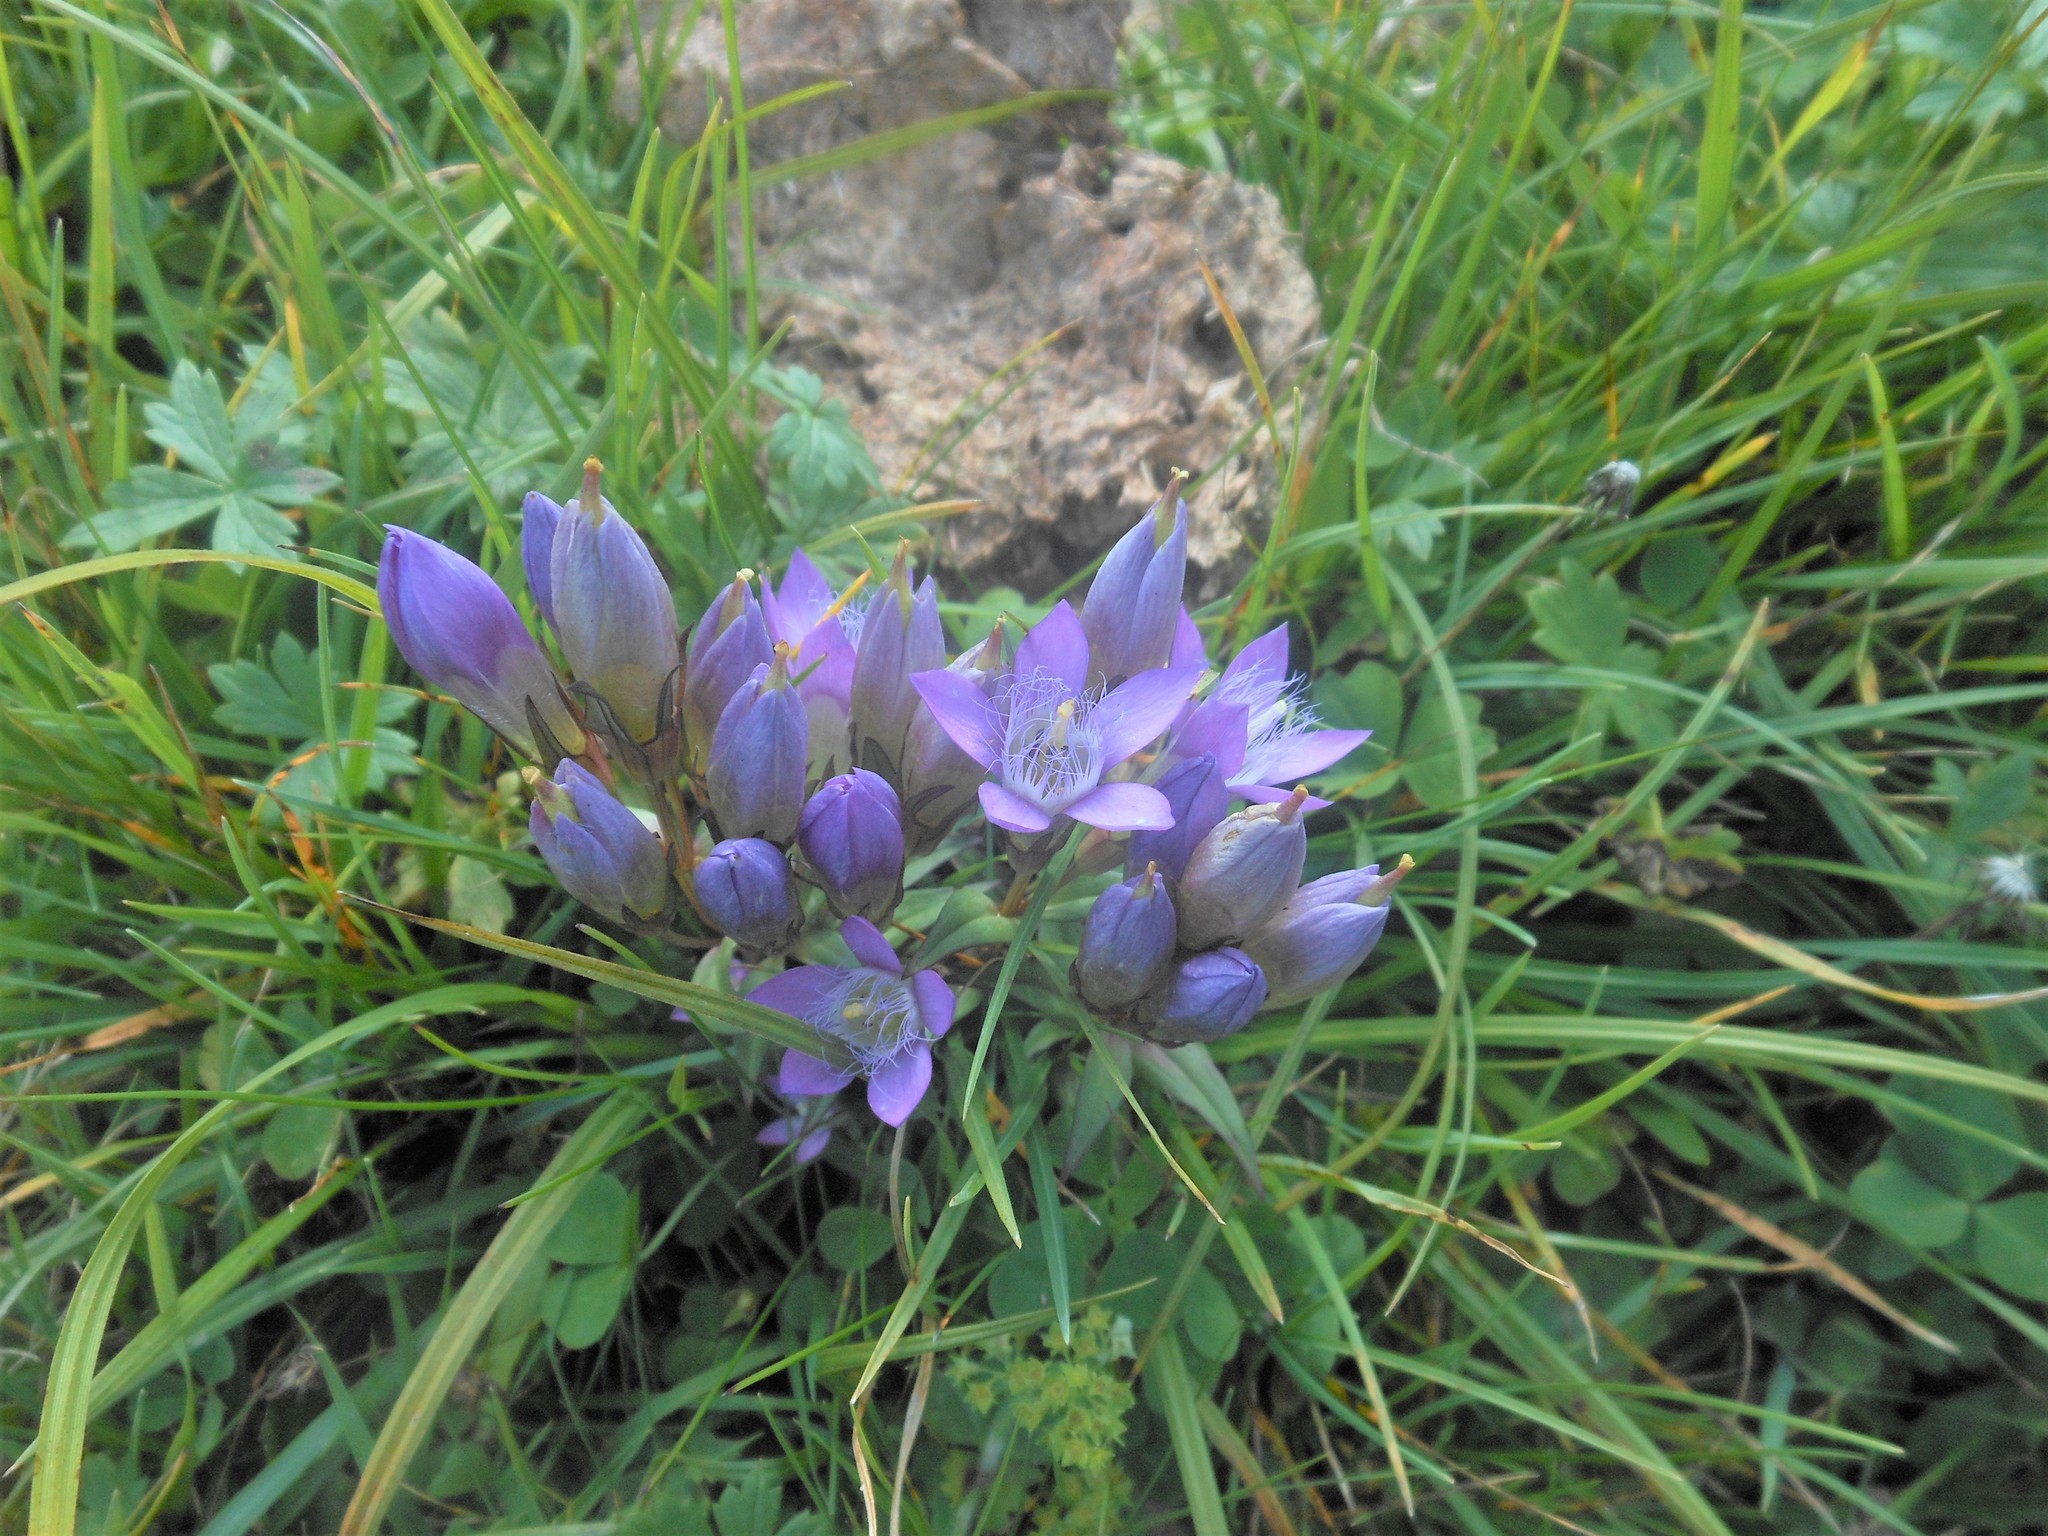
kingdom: Plantae
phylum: Tracheophyta
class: Magnoliopsida
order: Gentianales
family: Gentianaceae
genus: Gentianella
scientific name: Gentianella austriaca
